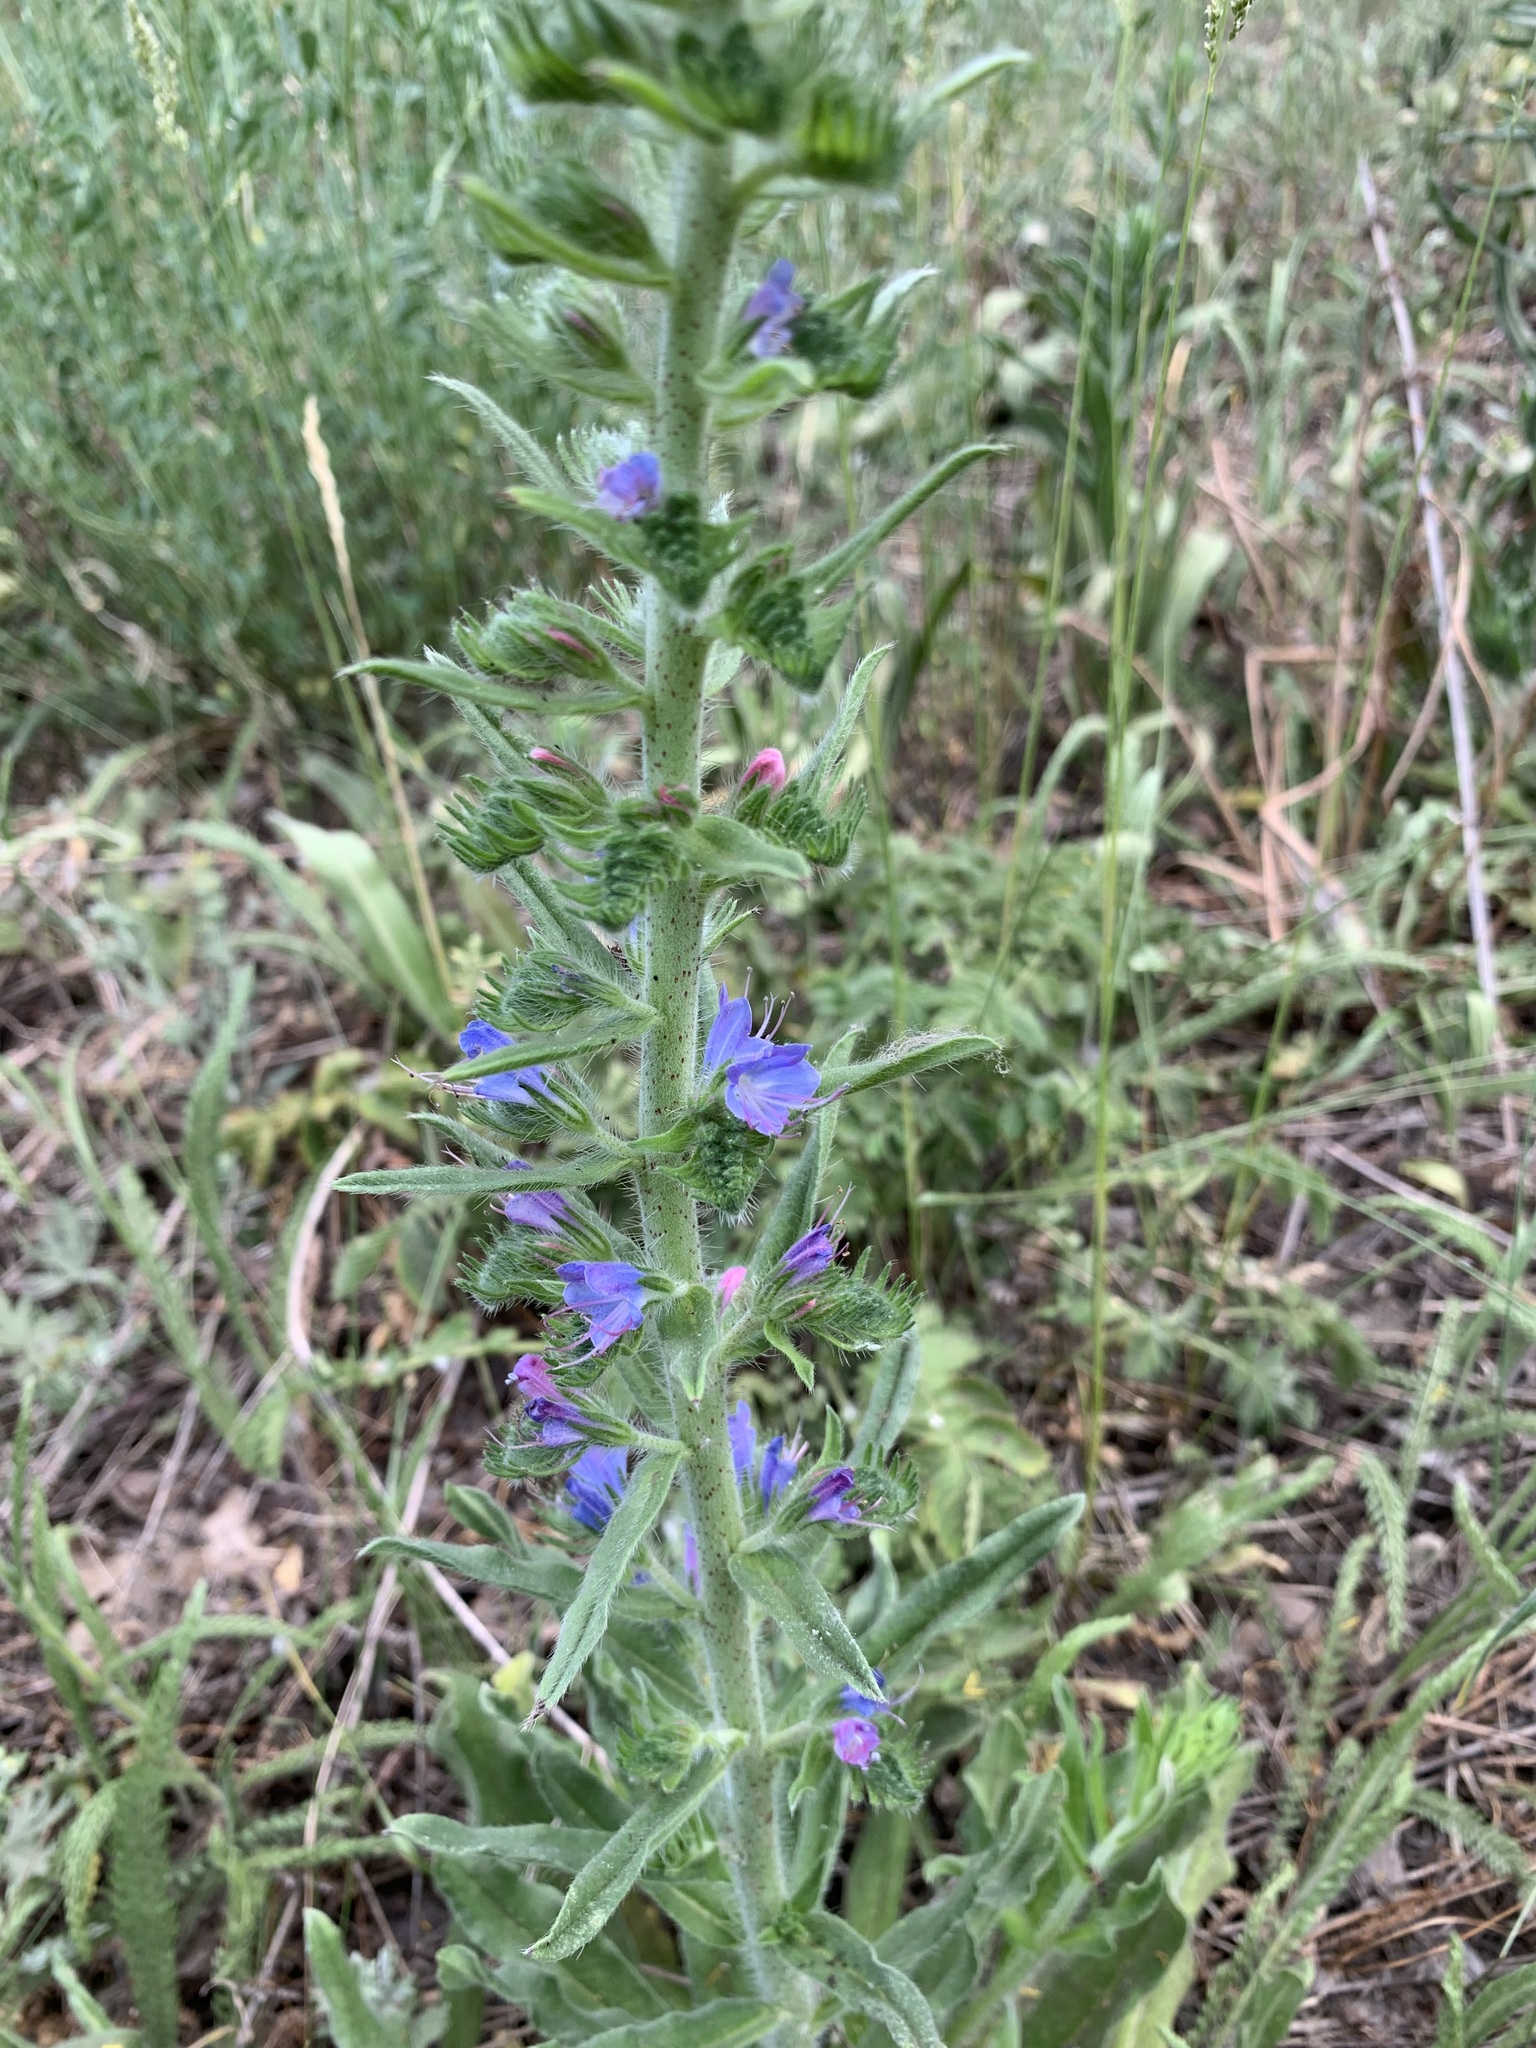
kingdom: Plantae
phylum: Tracheophyta
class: Magnoliopsida
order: Boraginales
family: Boraginaceae
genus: Echium
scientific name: Echium vulgare
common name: Common viper's bugloss
